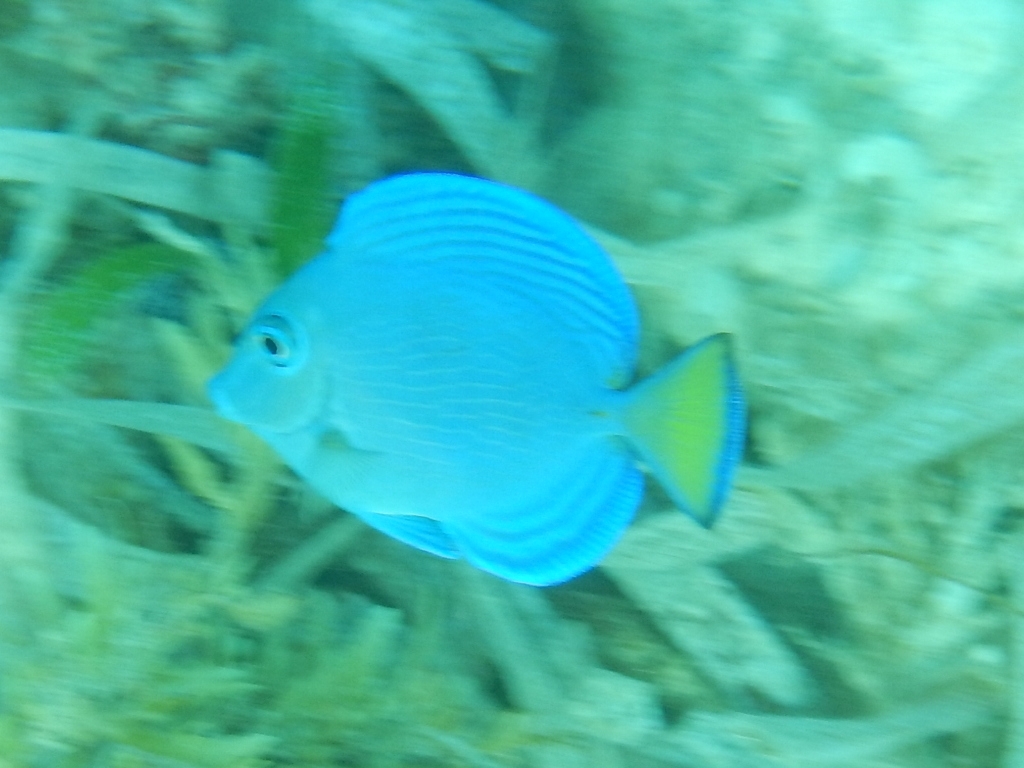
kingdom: Animalia
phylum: Chordata
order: Perciformes
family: Acanthuridae
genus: Acanthurus
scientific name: Acanthurus coeruleus
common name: Blue tang
